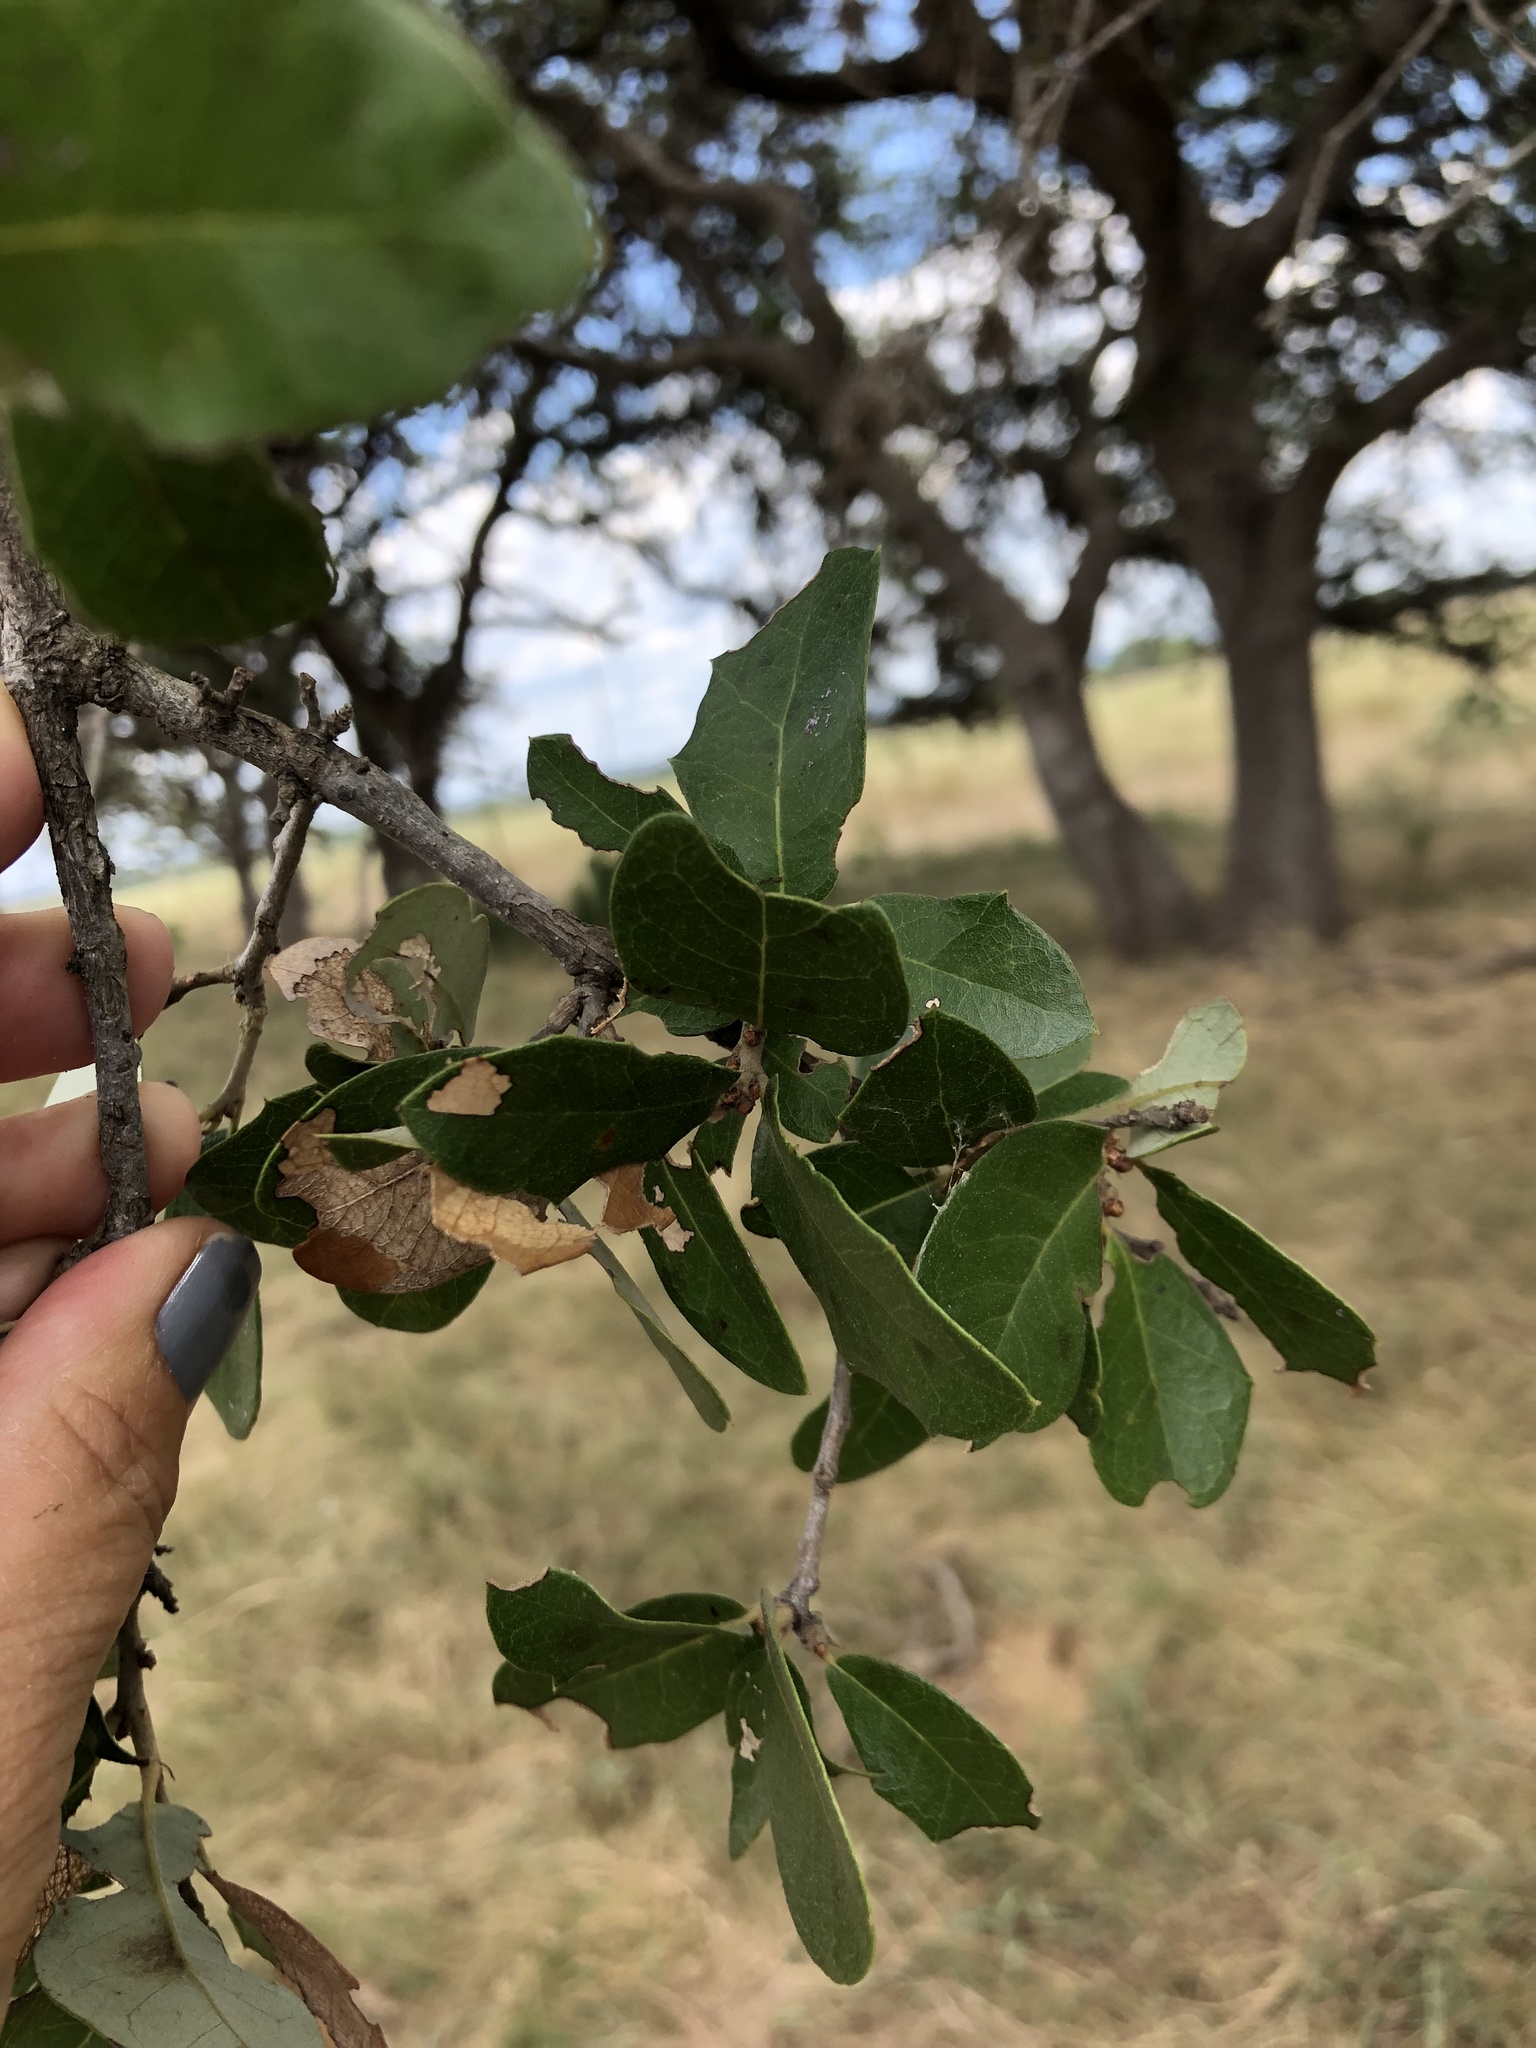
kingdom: Plantae
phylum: Tracheophyta
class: Magnoliopsida
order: Fagales
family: Fagaceae
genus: Quercus
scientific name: Quercus fusiformis
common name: Texas live oak
